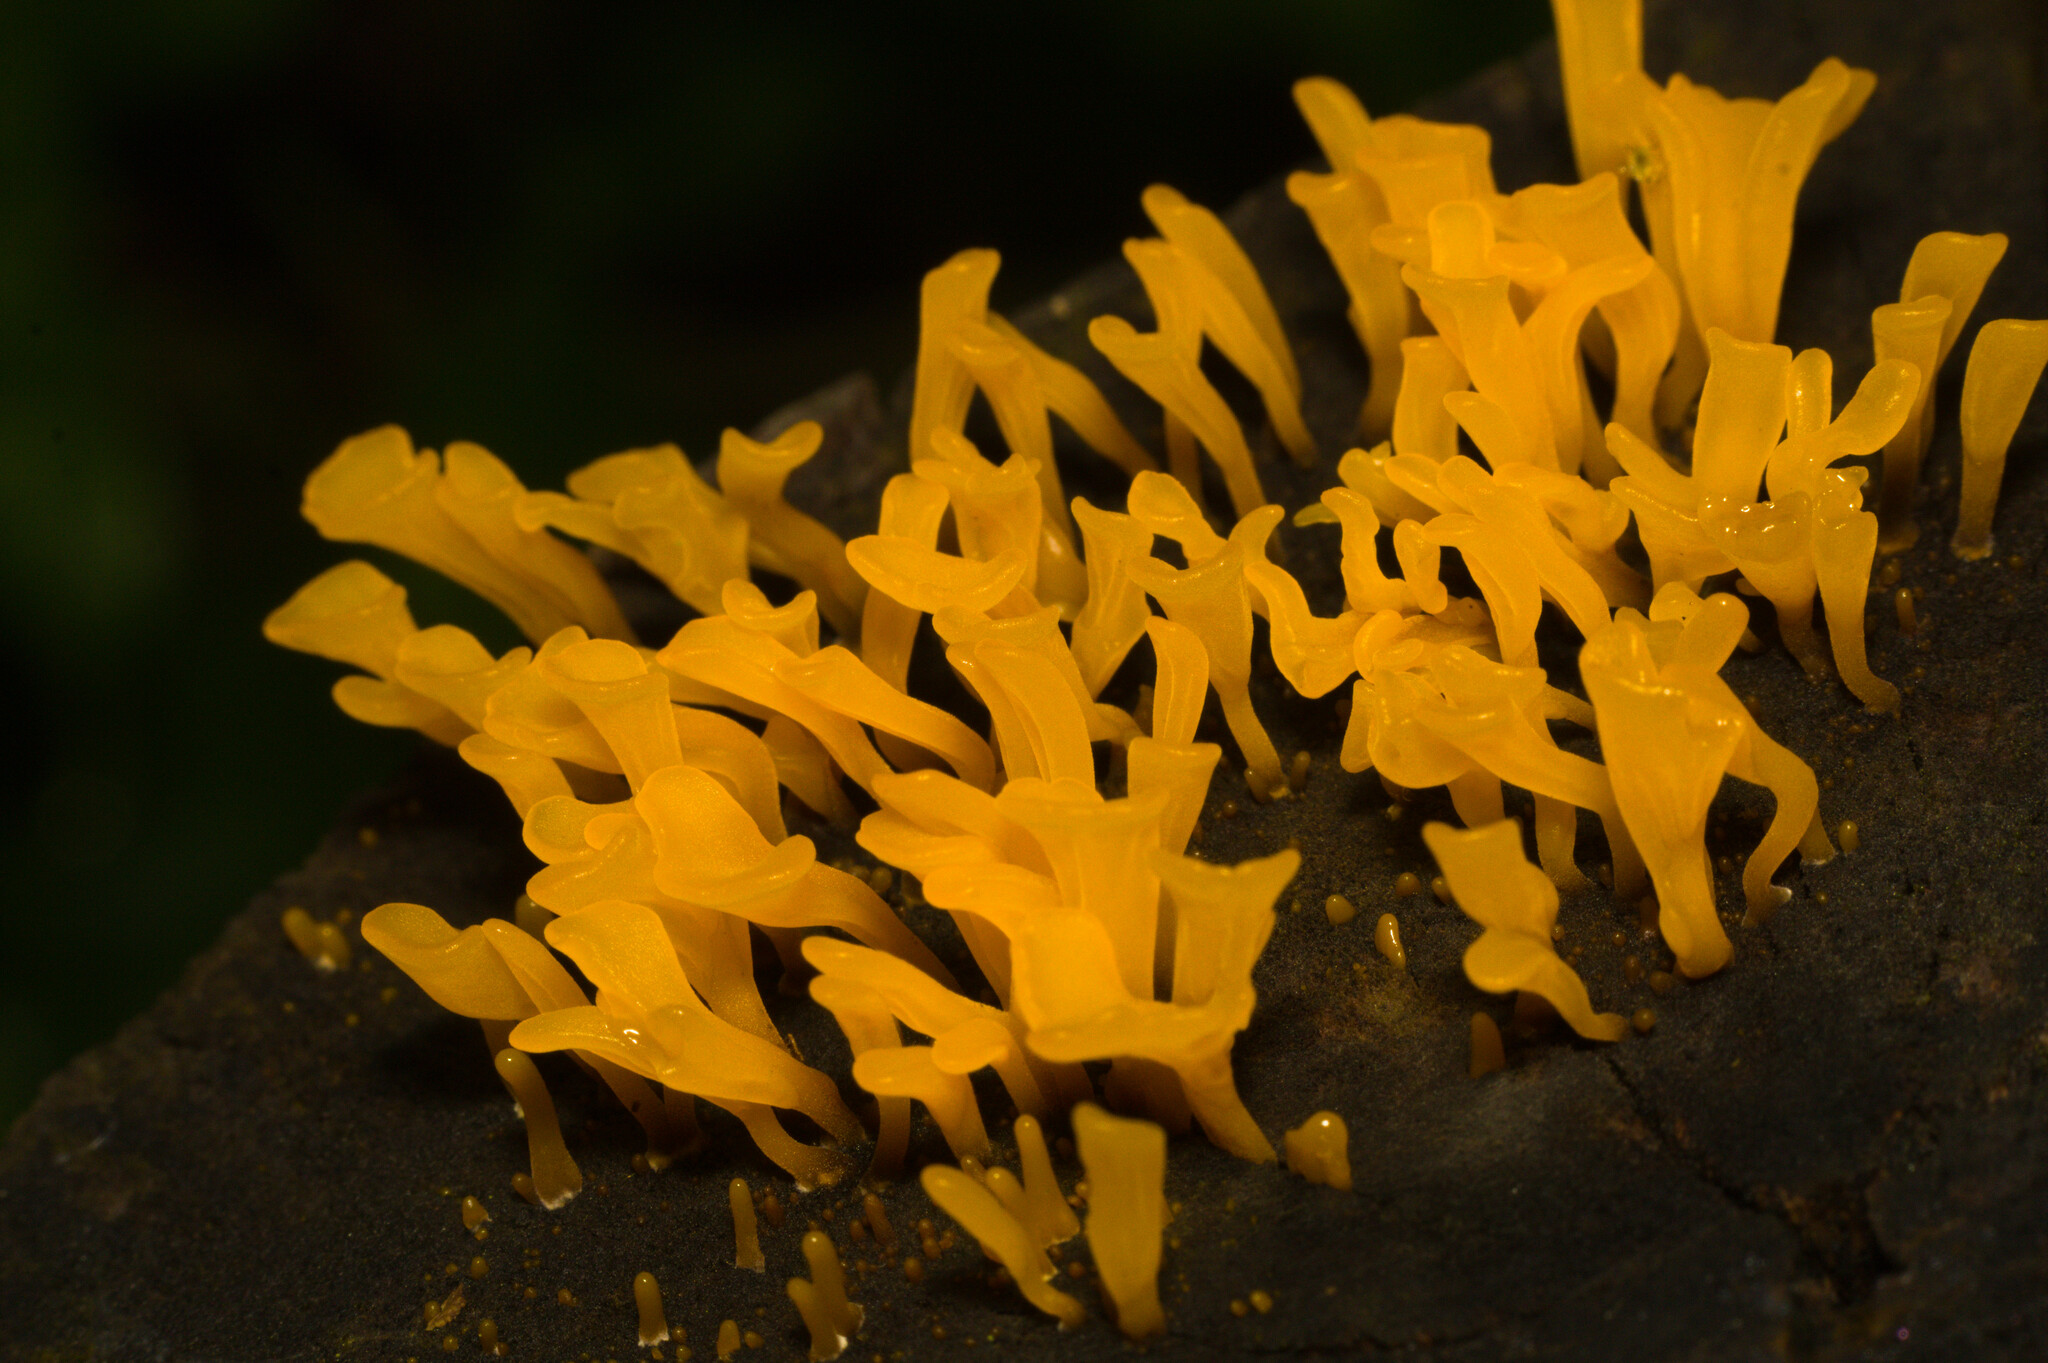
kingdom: Fungi
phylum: Basidiomycota
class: Dacrymycetes
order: Dacrymycetales
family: Dacrymycetaceae
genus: Dacrymyces
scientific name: Dacrymyces spathularius
